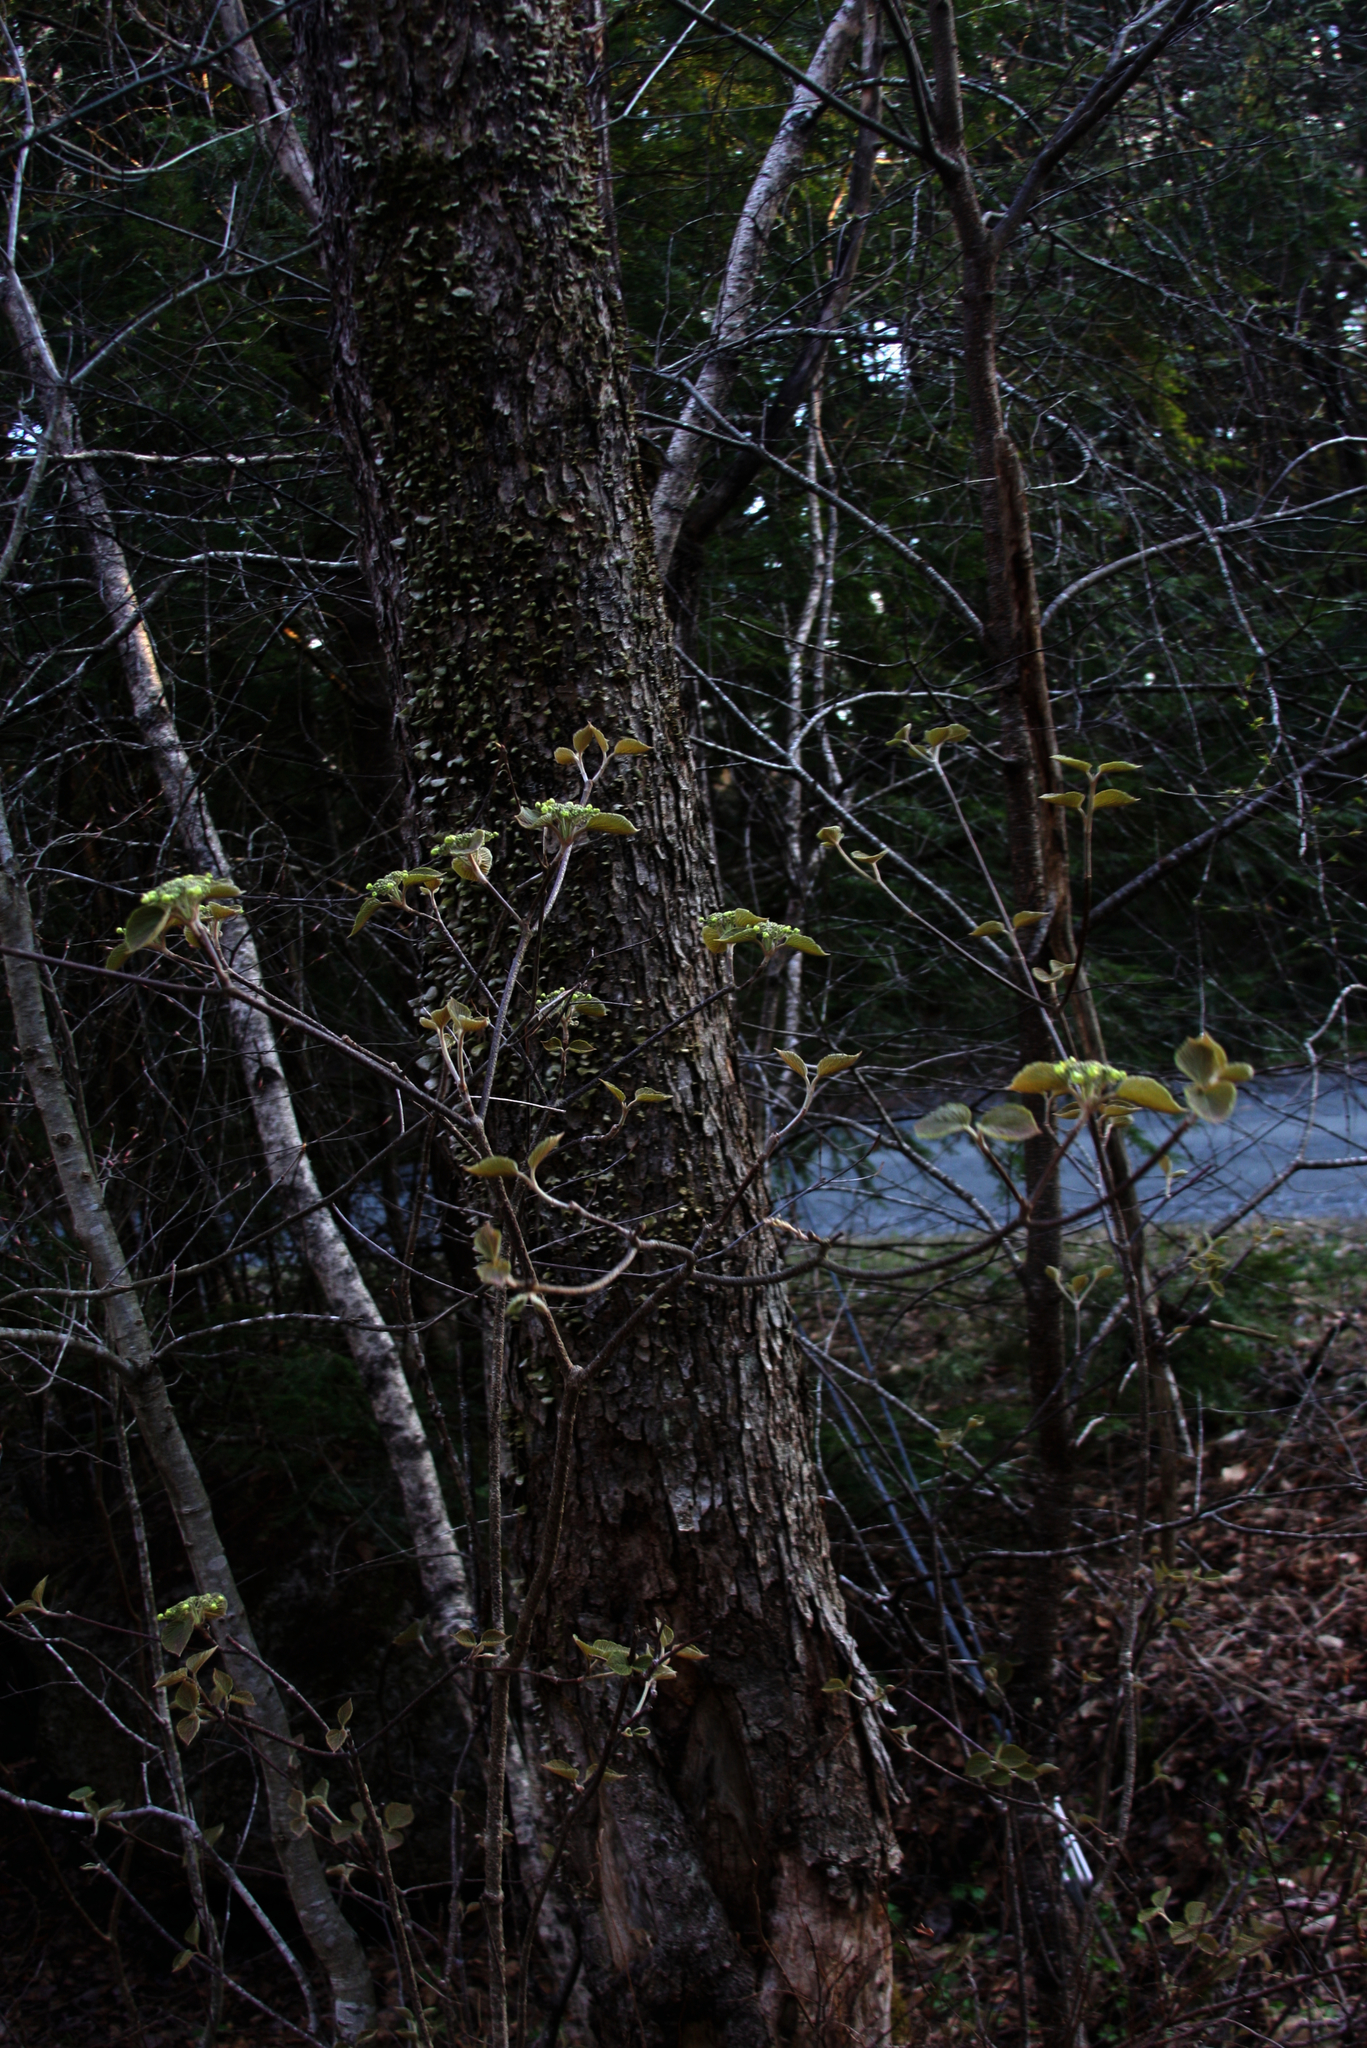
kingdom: Plantae
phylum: Tracheophyta
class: Magnoliopsida
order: Dipsacales
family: Viburnaceae
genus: Viburnum
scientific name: Viburnum lantanoides
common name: Hobblebush
